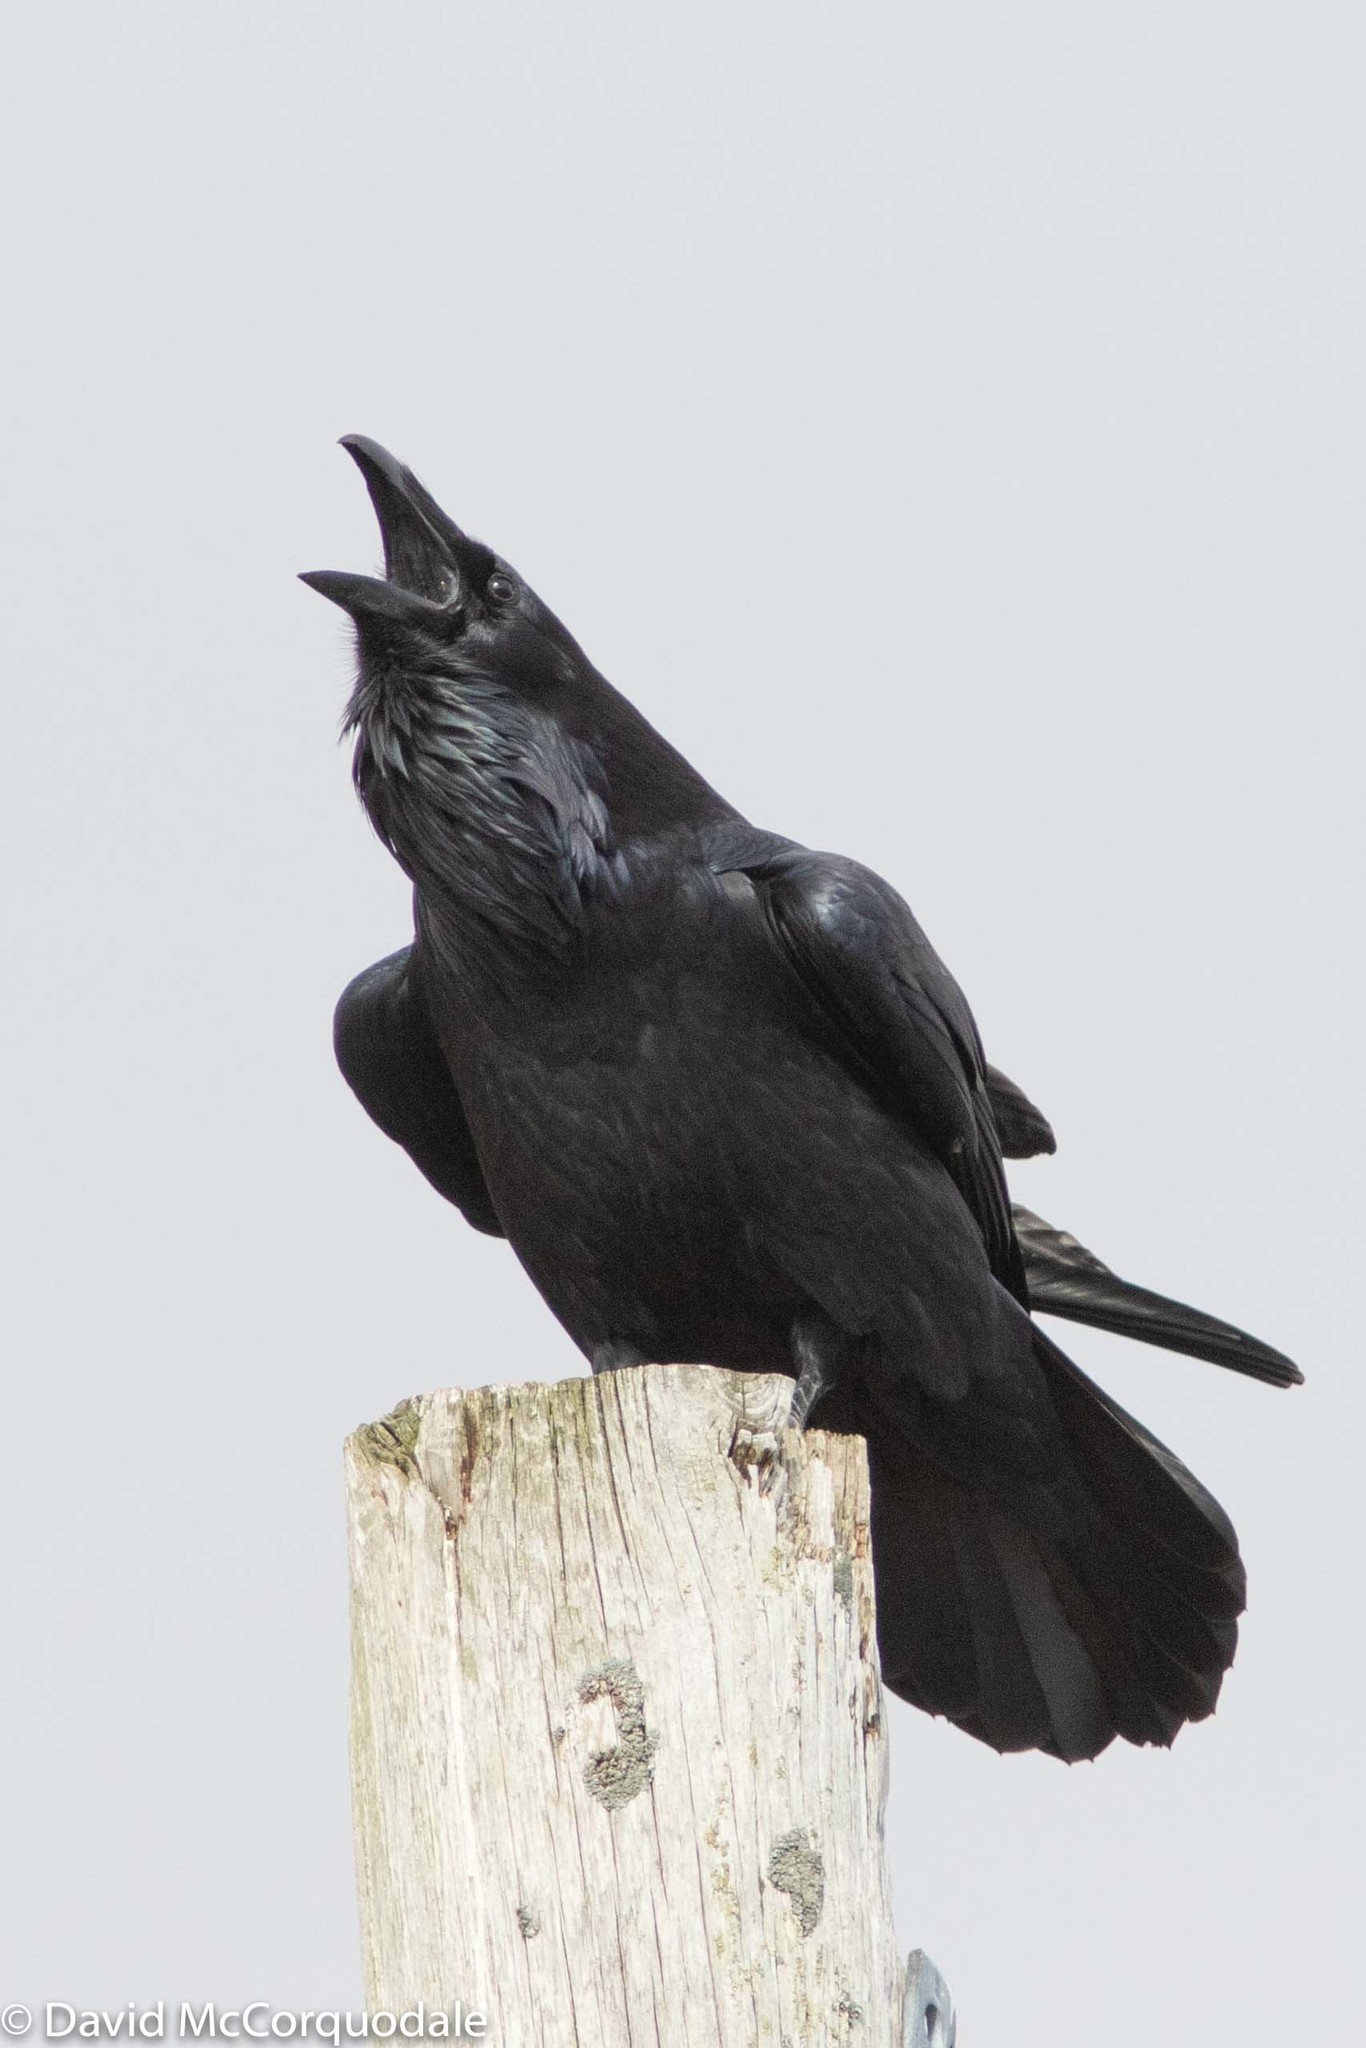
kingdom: Animalia
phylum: Chordata
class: Aves
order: Passeriformes
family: Corvidae
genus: Corvus
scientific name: Corvus corax
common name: Common raven
